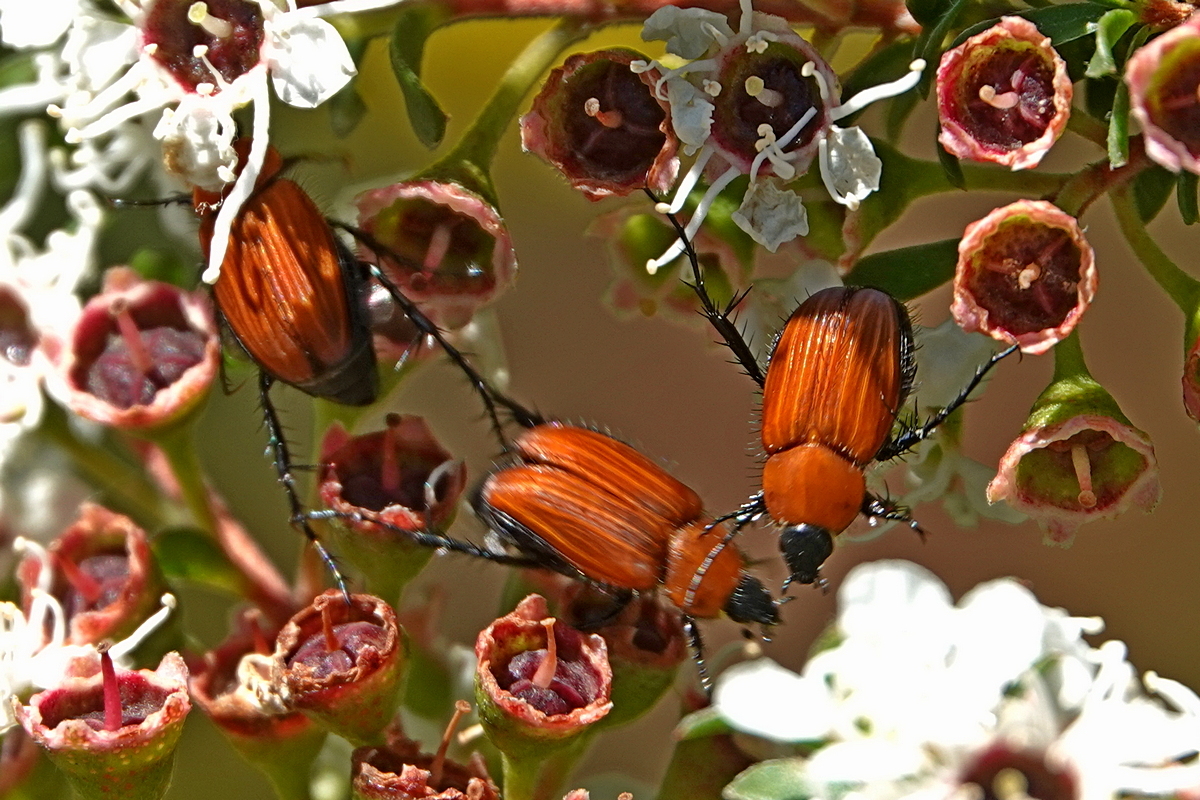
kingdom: Animalia
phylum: Arthropoda
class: Insecta
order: Coleoptera
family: Scarabaeidae
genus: Phyllotocus
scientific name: Phyllotocus ruficollis
